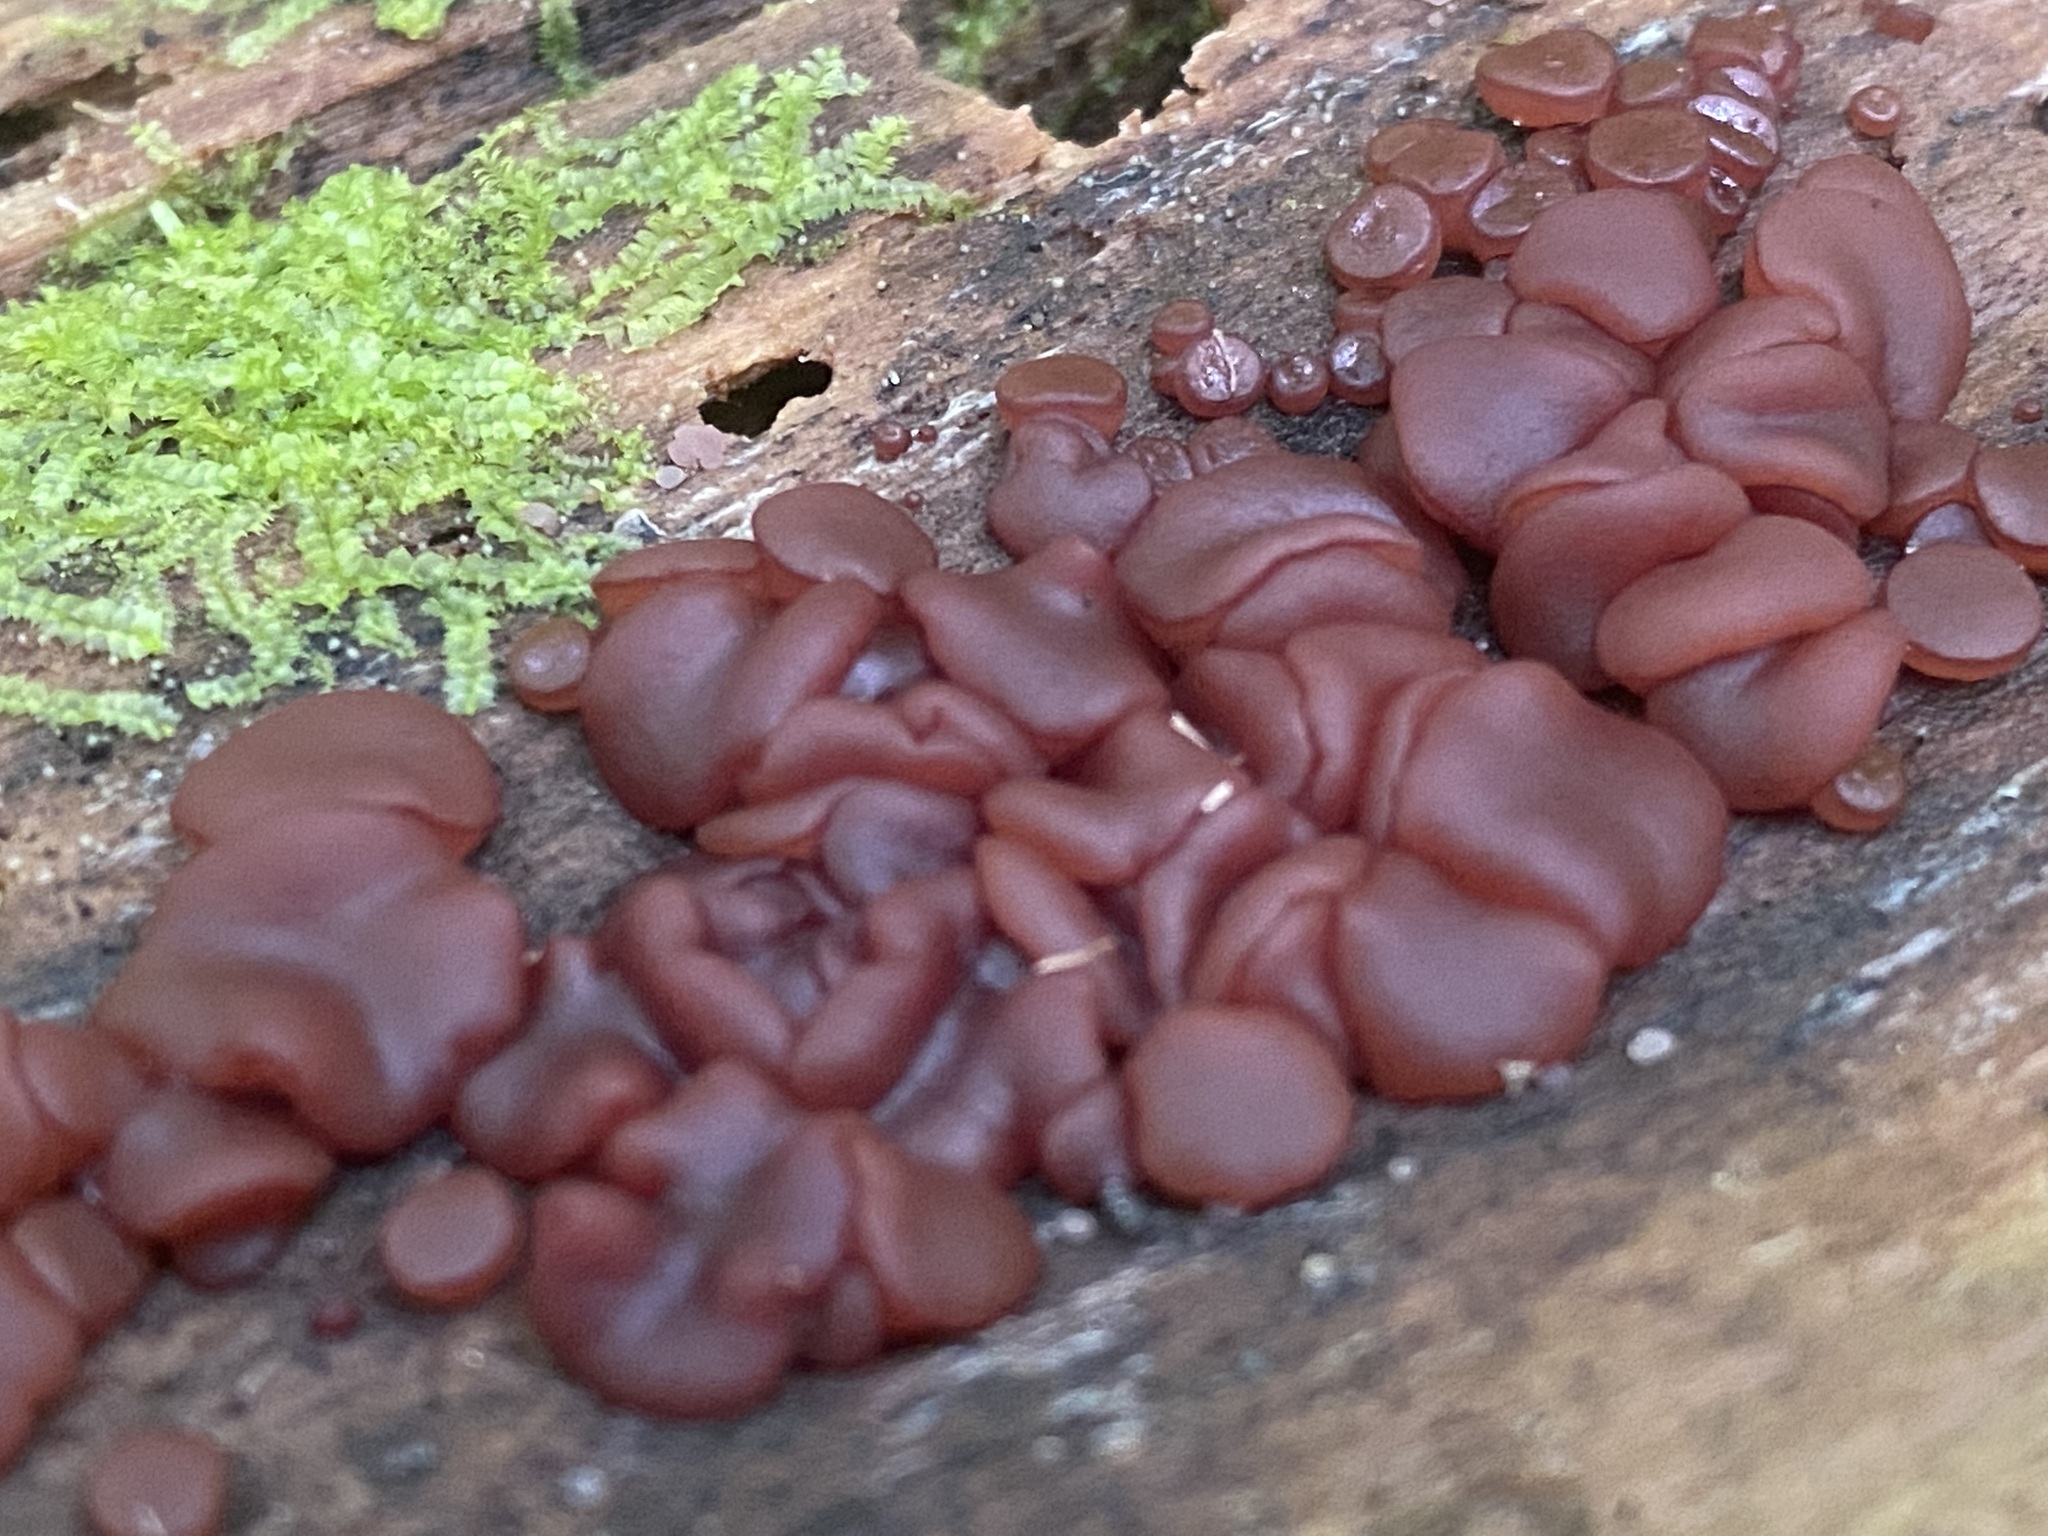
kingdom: Fungi
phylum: Ascomycota
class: Leotiomycetes
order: Helotiales
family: Gelatinodiscaceae
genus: Ascocoryne
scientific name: Ascocoryne sarcoides
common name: Purple jellydisc
